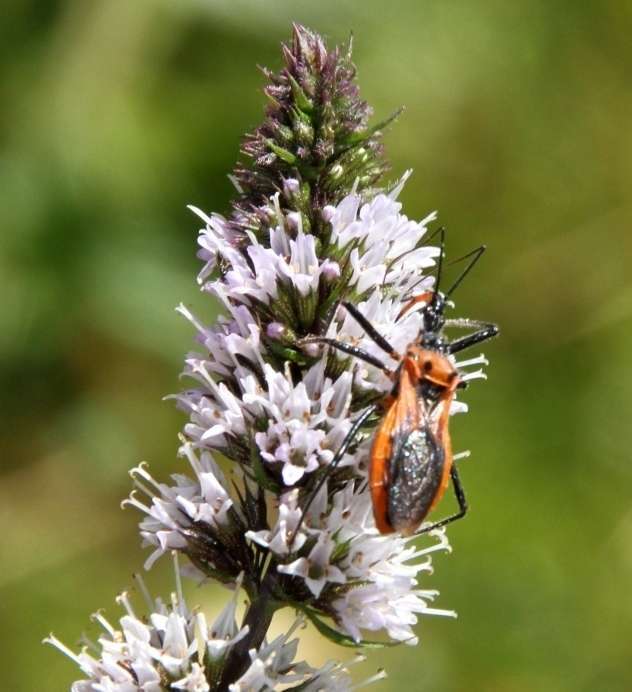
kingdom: Animalia
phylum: Arthropoda
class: Insecta
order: Hemiptera
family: Reduviidae
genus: Gminatus
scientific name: Gminatus australis
